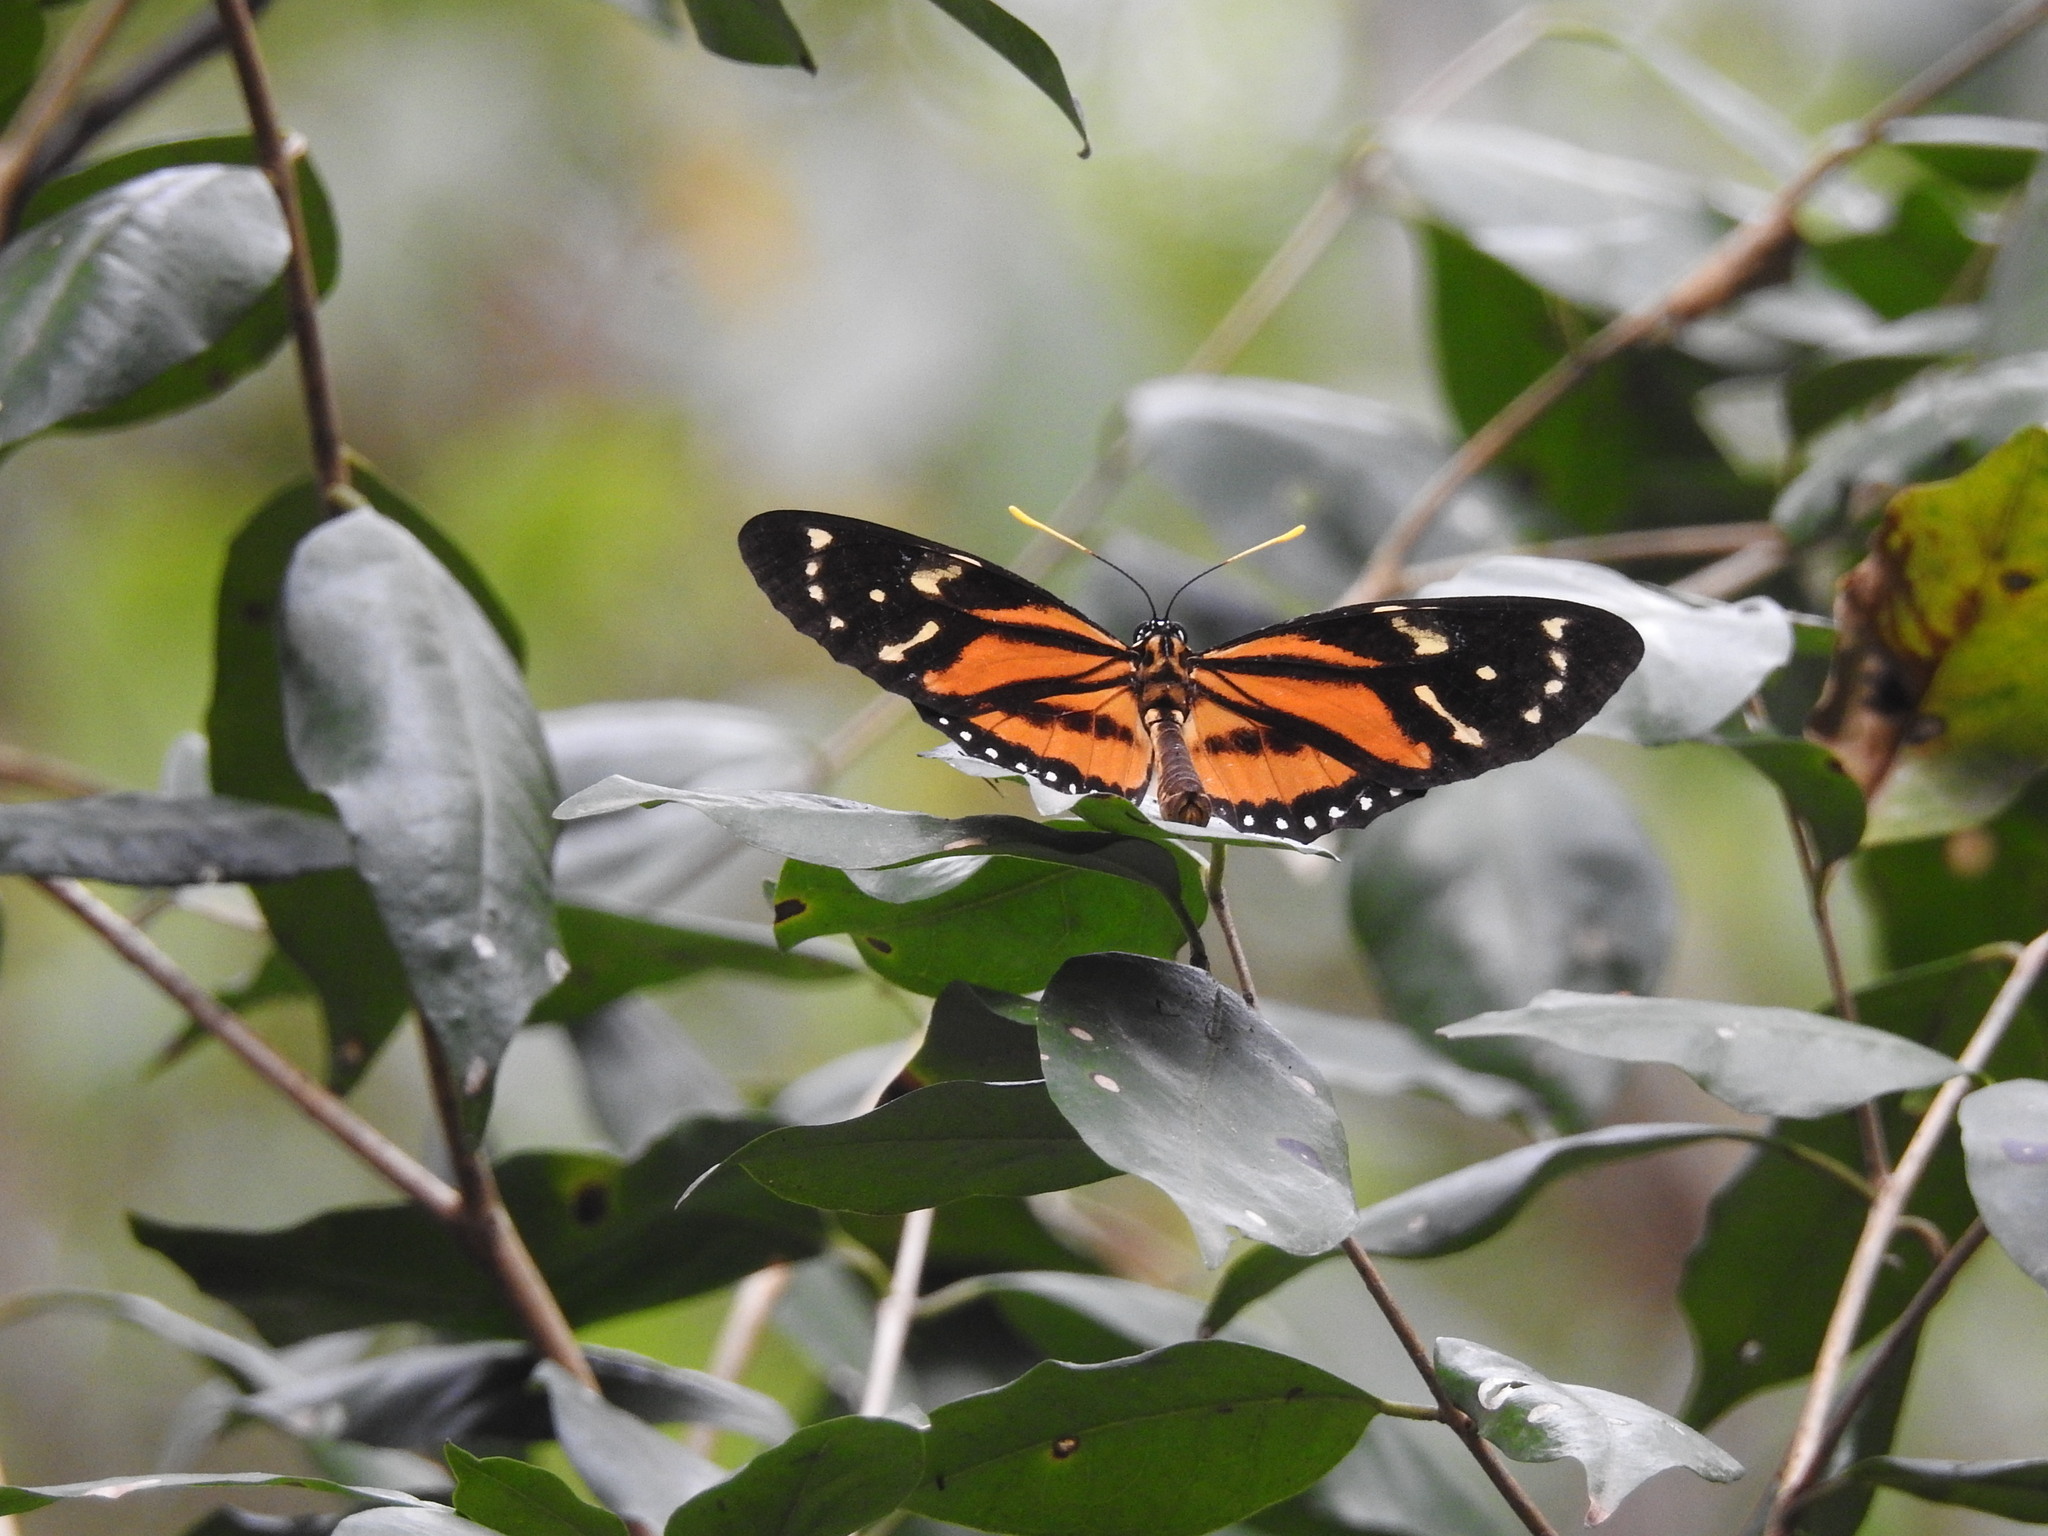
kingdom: Animalia
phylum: Arthropoda
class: Insecta
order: Lepidoptera
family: Nymphalidae
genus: Lycorea
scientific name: Lycorea cleobaea
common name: Tiger mimic-queen
